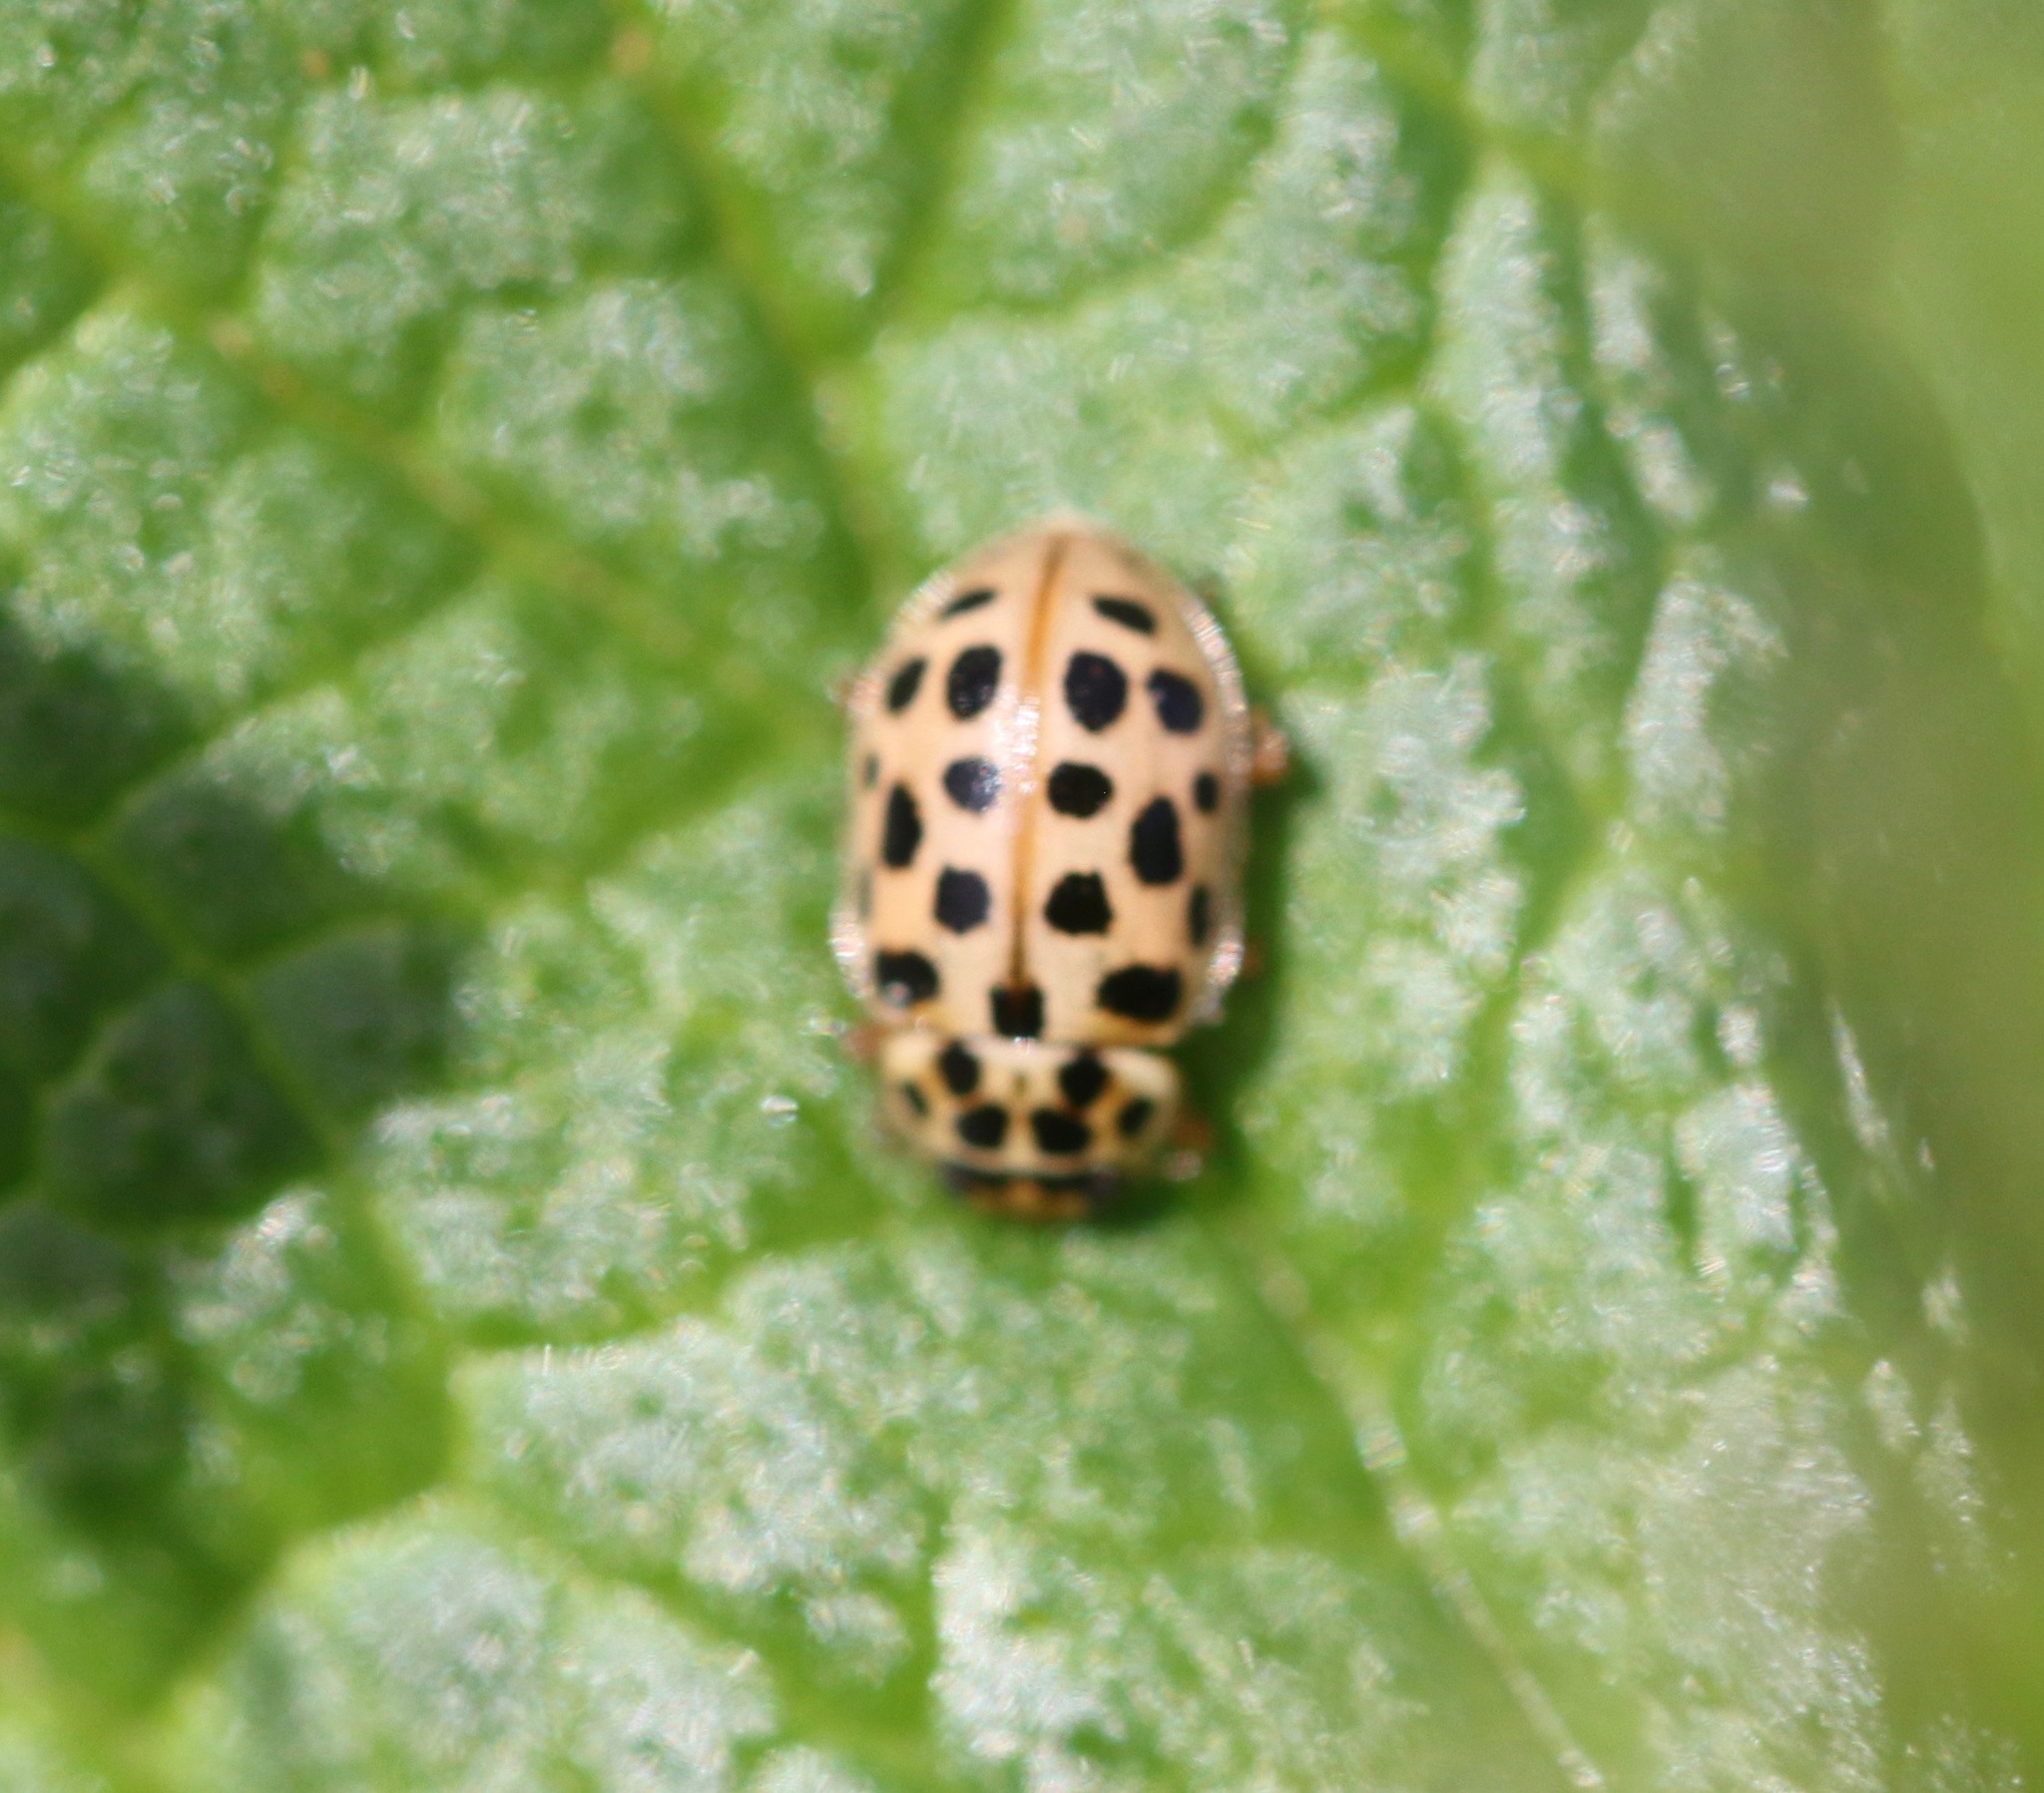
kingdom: Animalia
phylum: Arthropoda
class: Insecta
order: Coleoptera
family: Coccinellidae
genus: Anisosticta
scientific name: Anisosticta novemdecimpunctata
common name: Water ladybird
